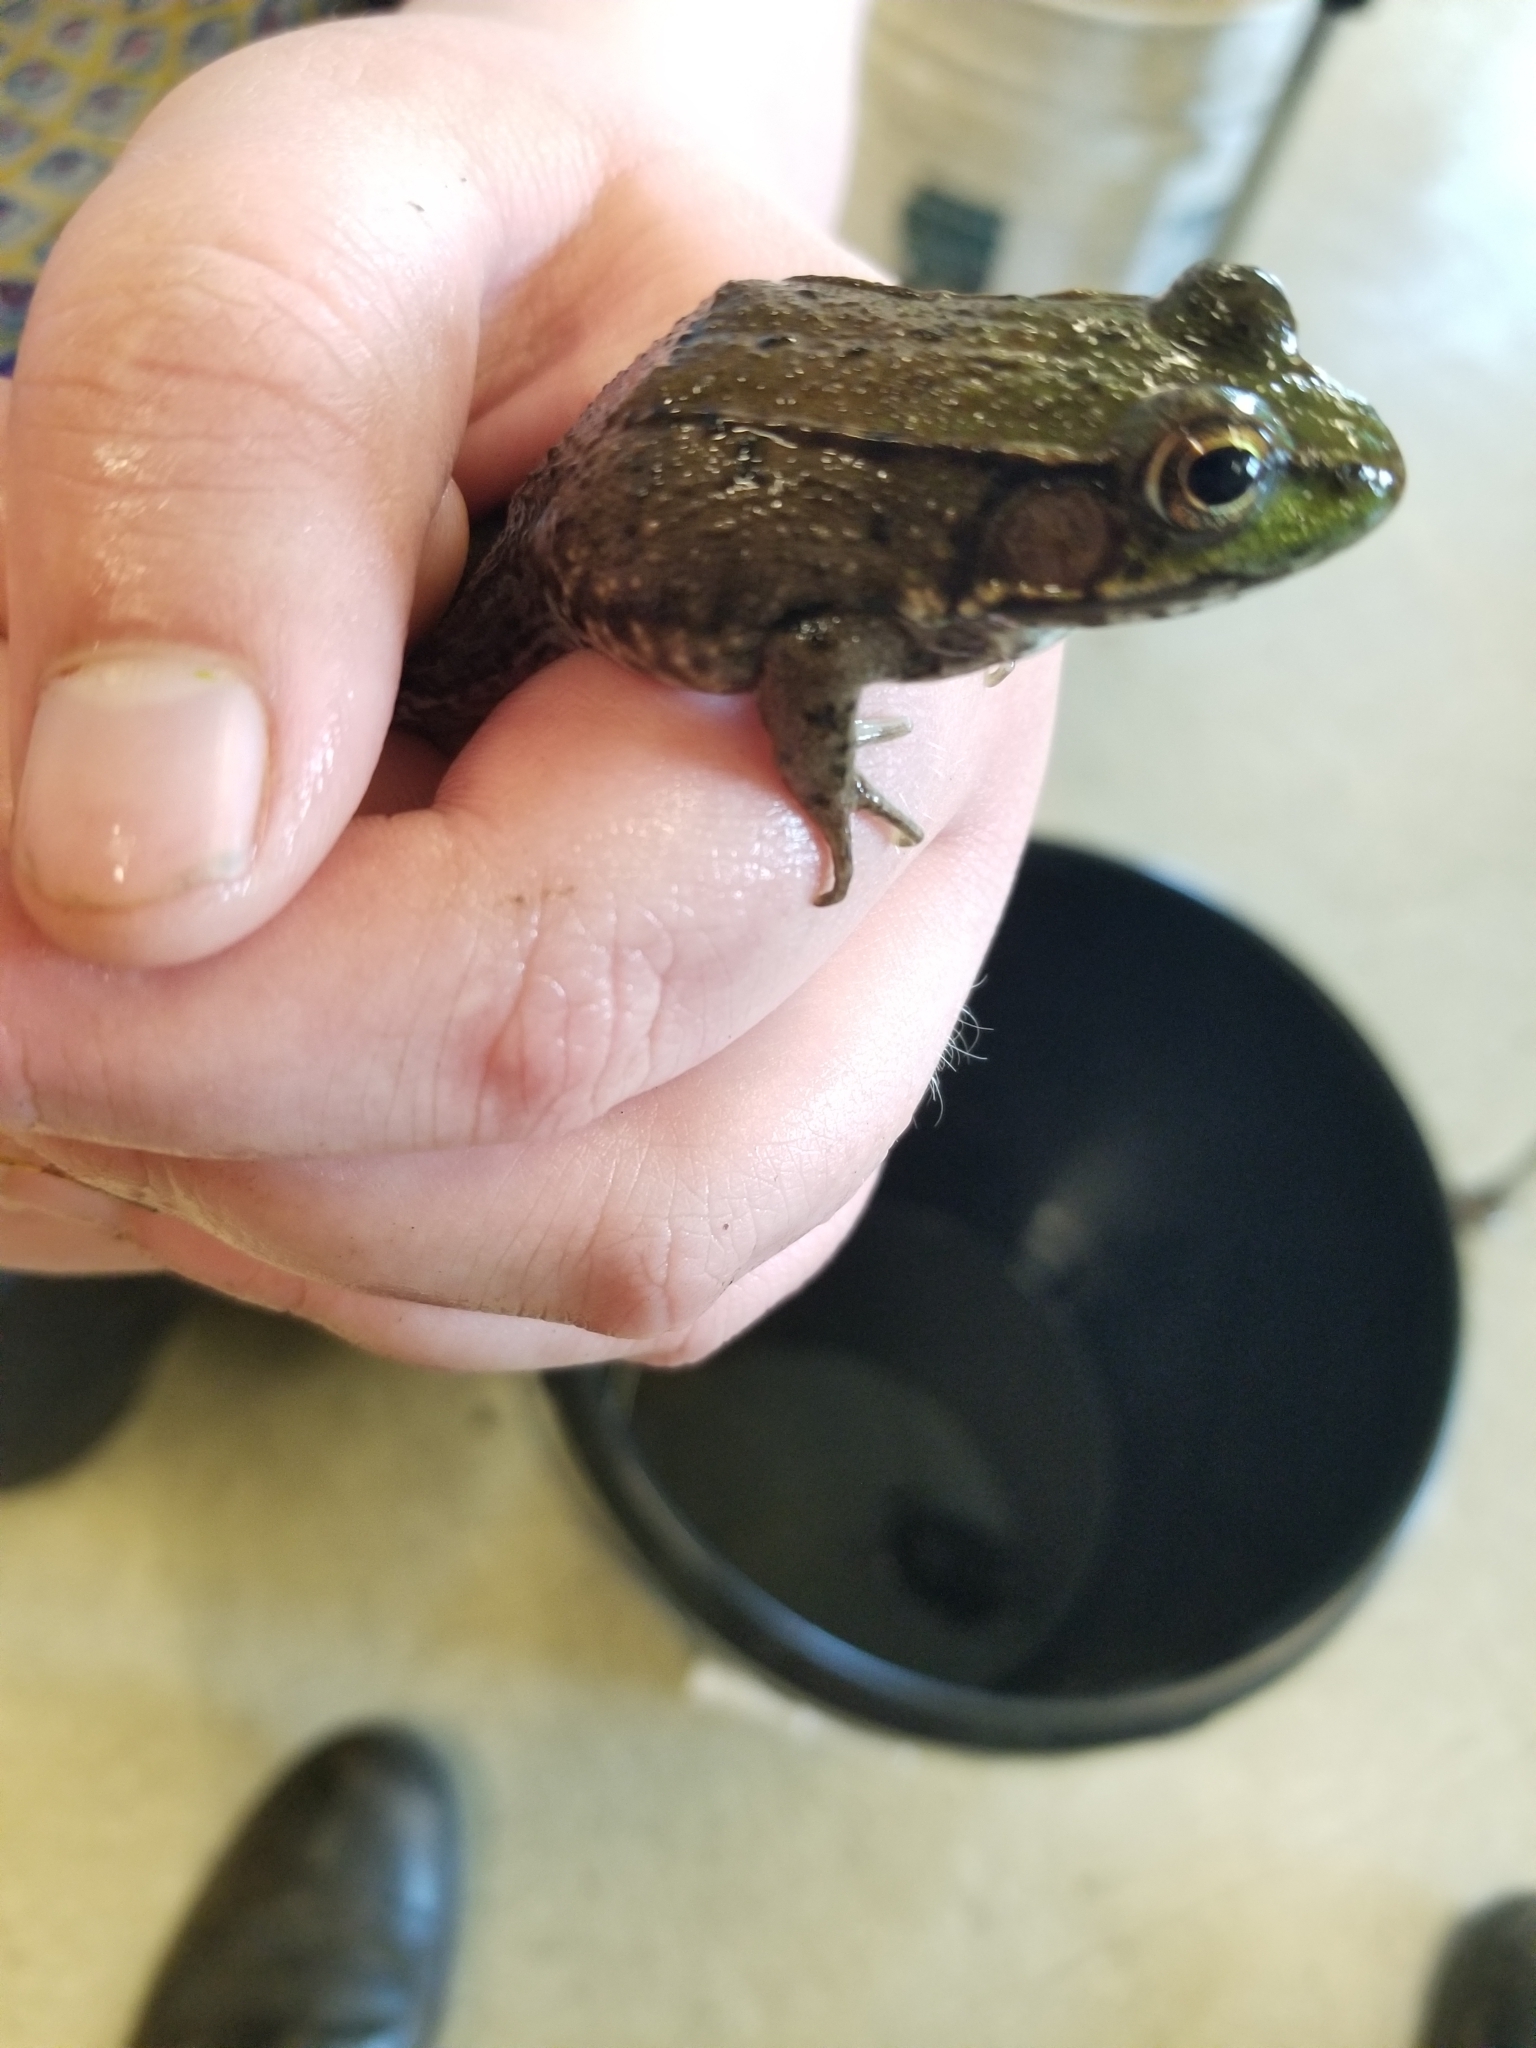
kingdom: Animalia
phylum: Chordata
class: Amphibia
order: Anura
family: Ranidae
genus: Lithobates
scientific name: Lithobates clamitans
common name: Green frog
